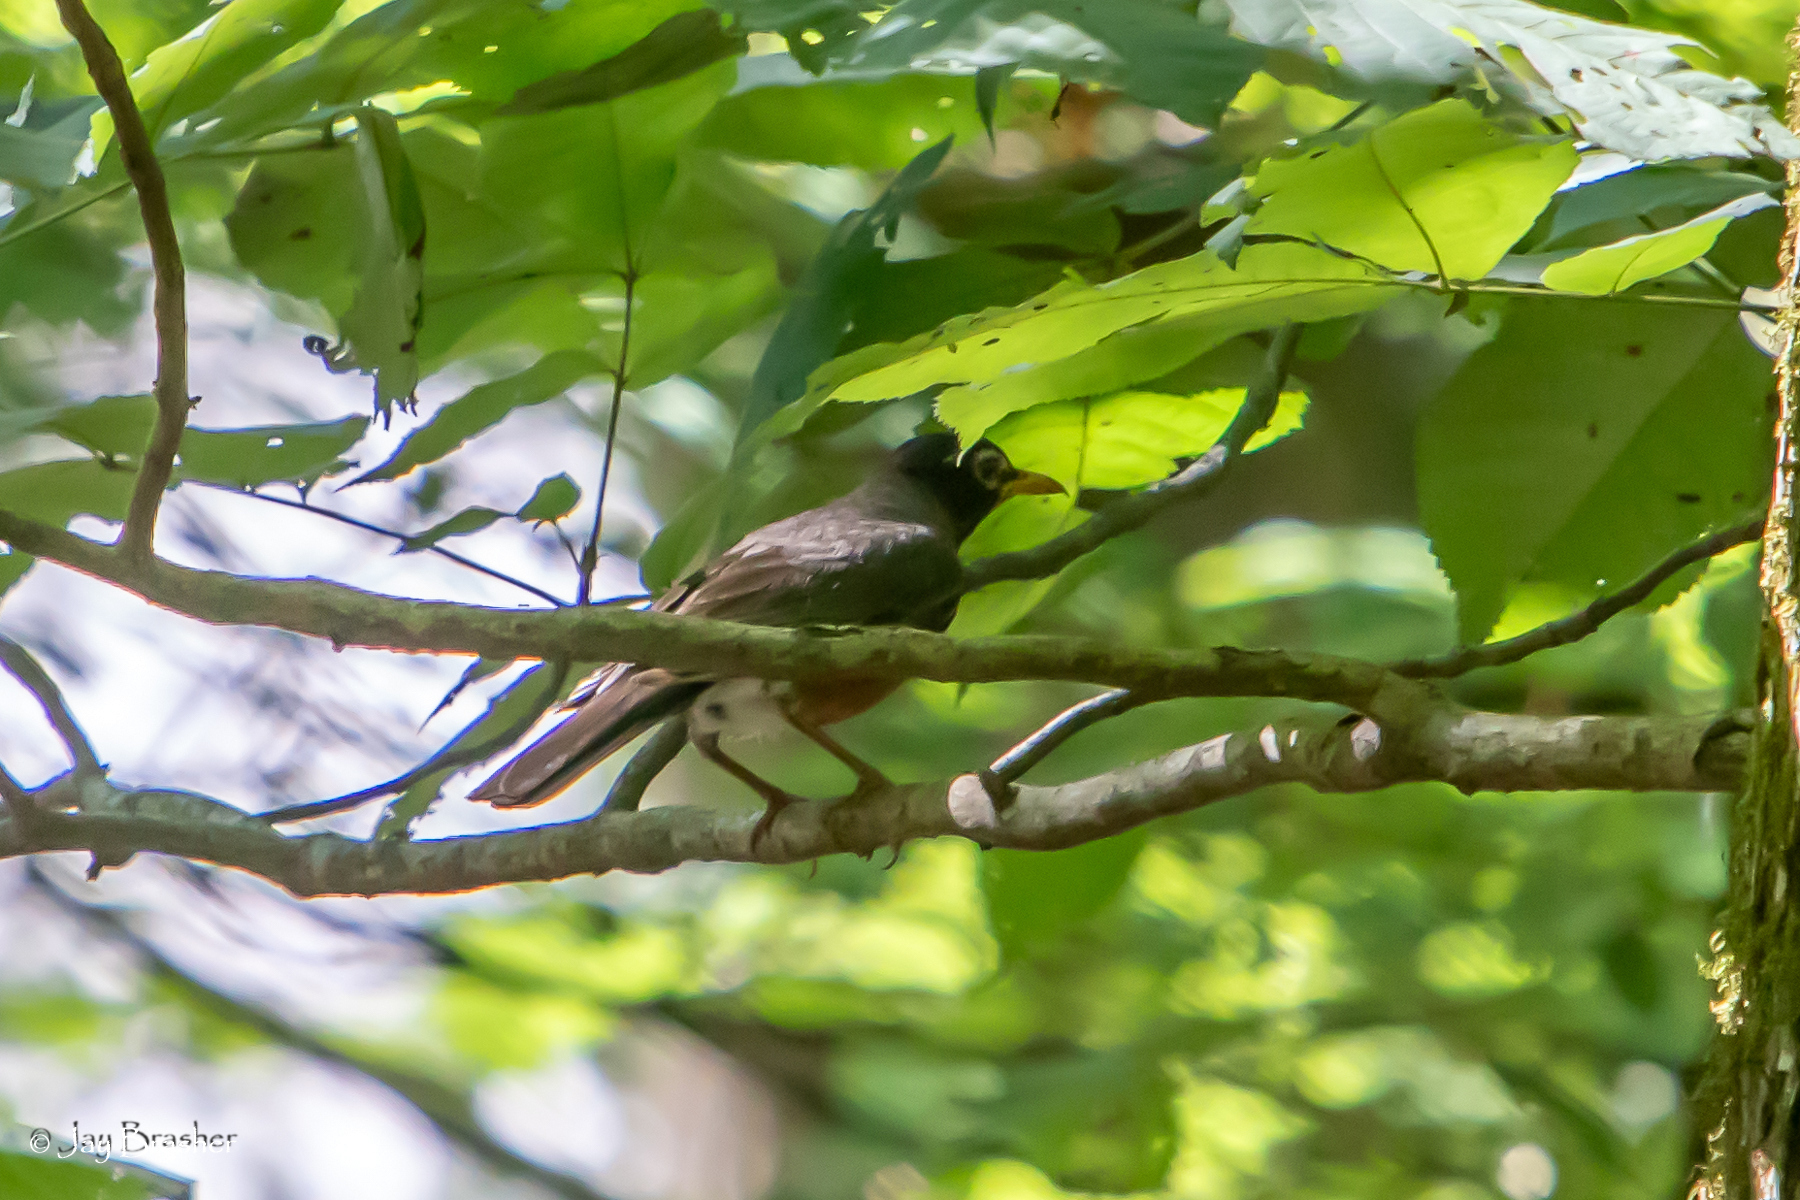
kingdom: Animalia
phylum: Chordata
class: Aves
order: Passeriformes
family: Turdidae
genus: Turdus
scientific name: Turdus migratorius
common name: American robin
